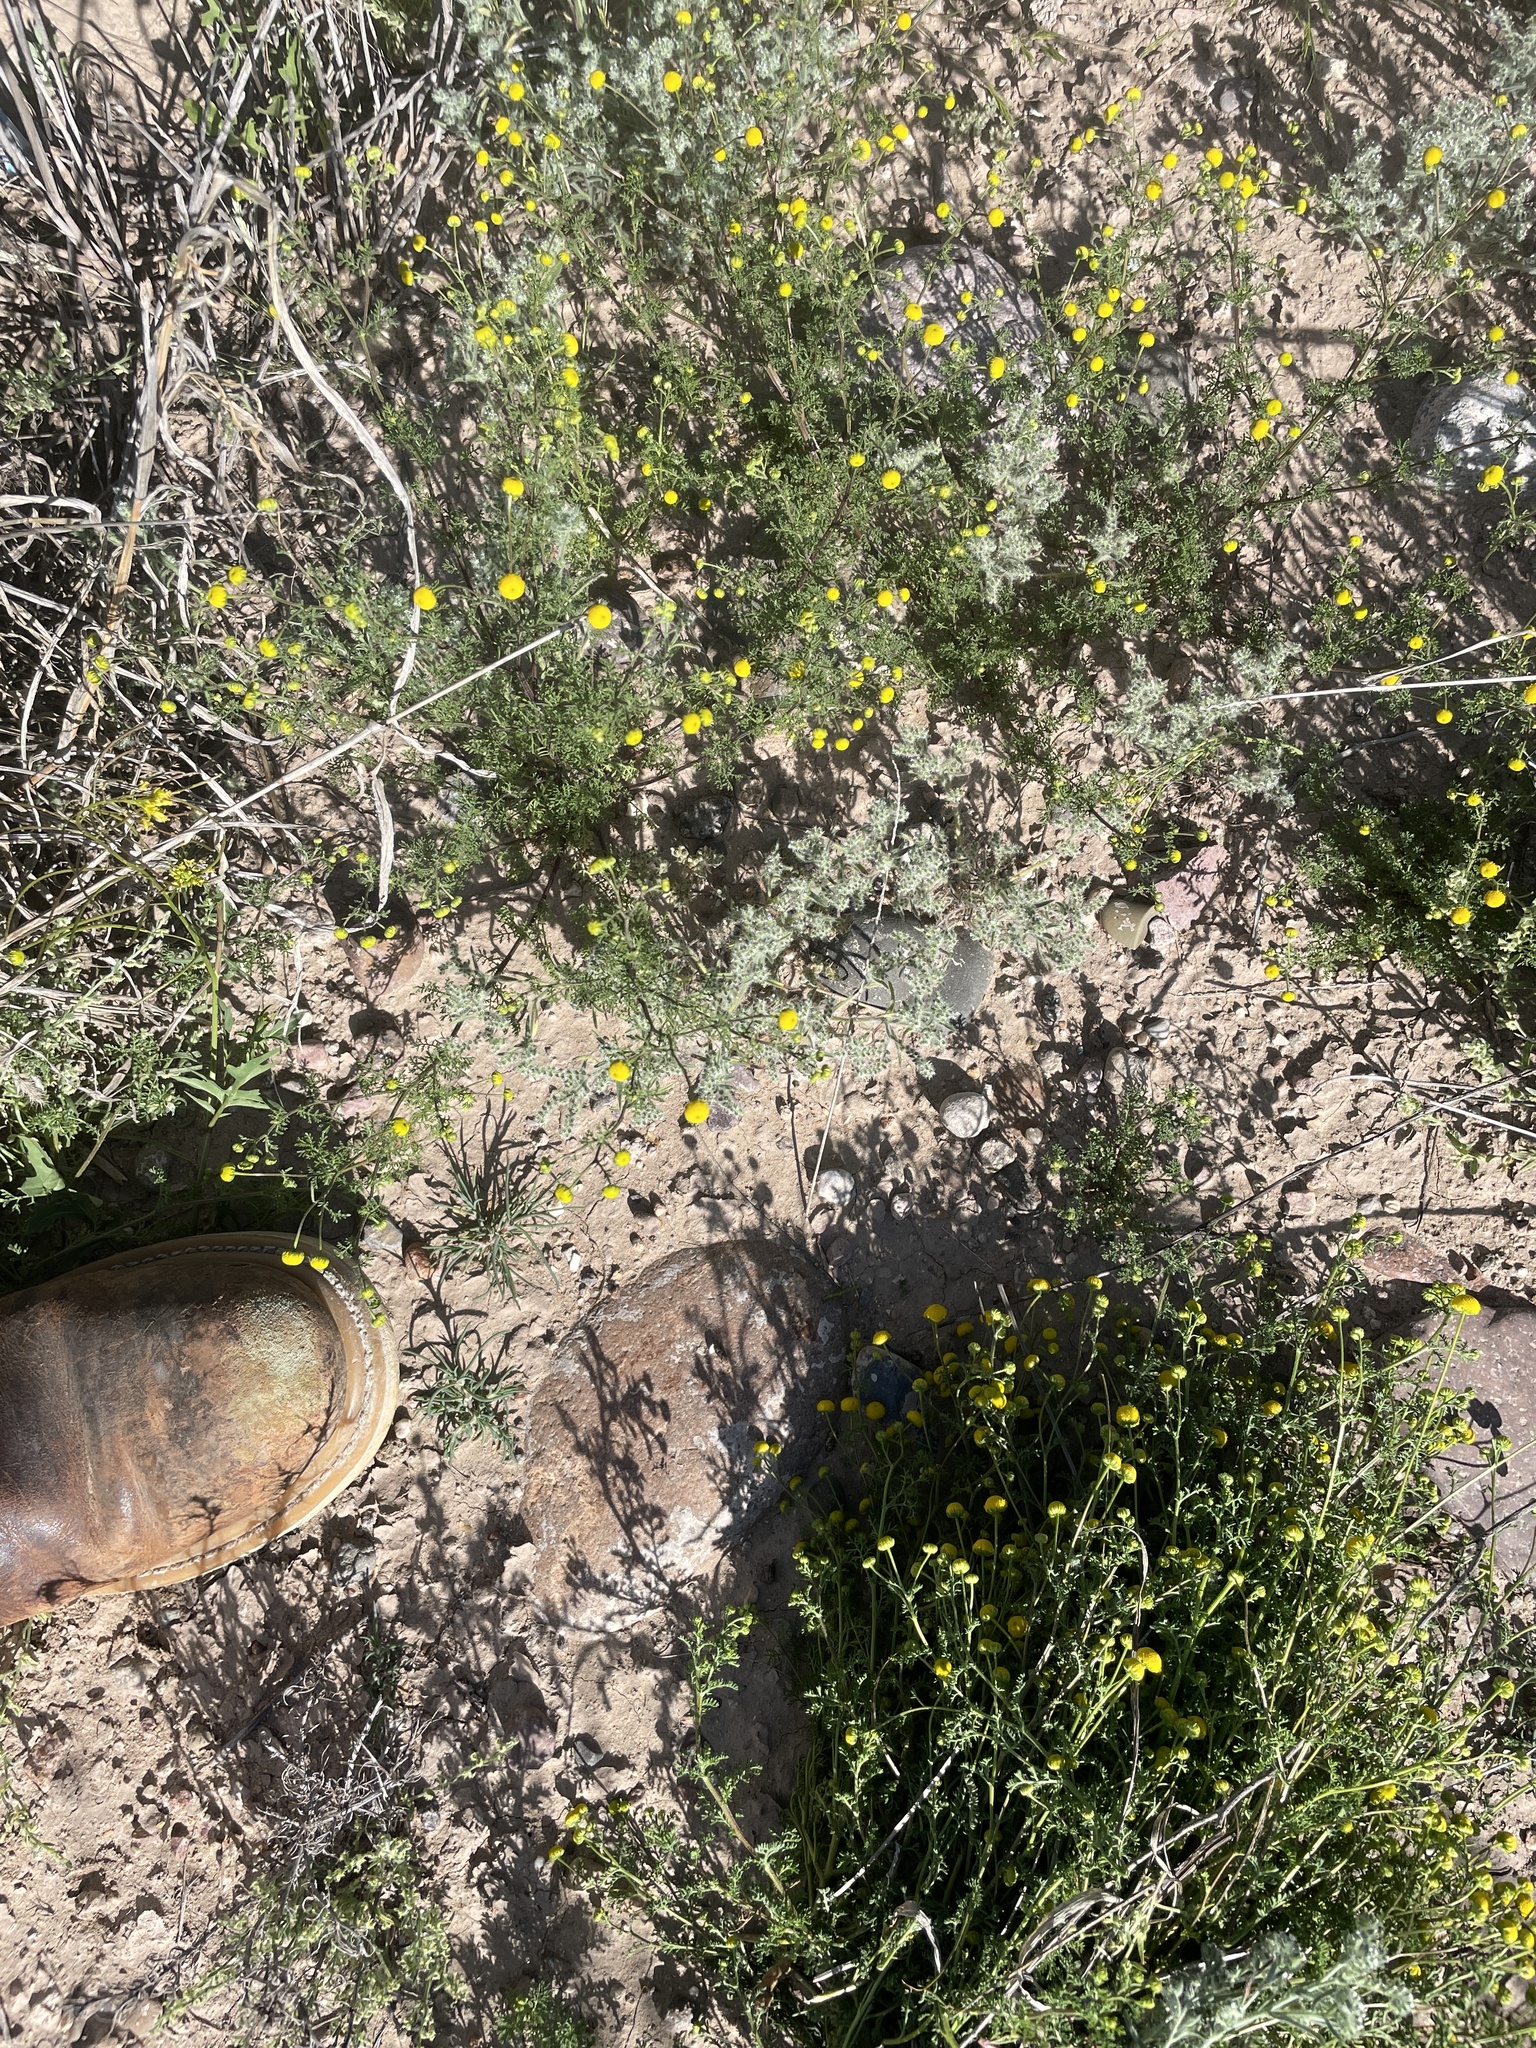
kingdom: Plantae
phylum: Tracheophyta
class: Magnoliopsida
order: Asterales
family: Asteraceae
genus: Oncosiphon
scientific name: Oncosiphon pilulifer
